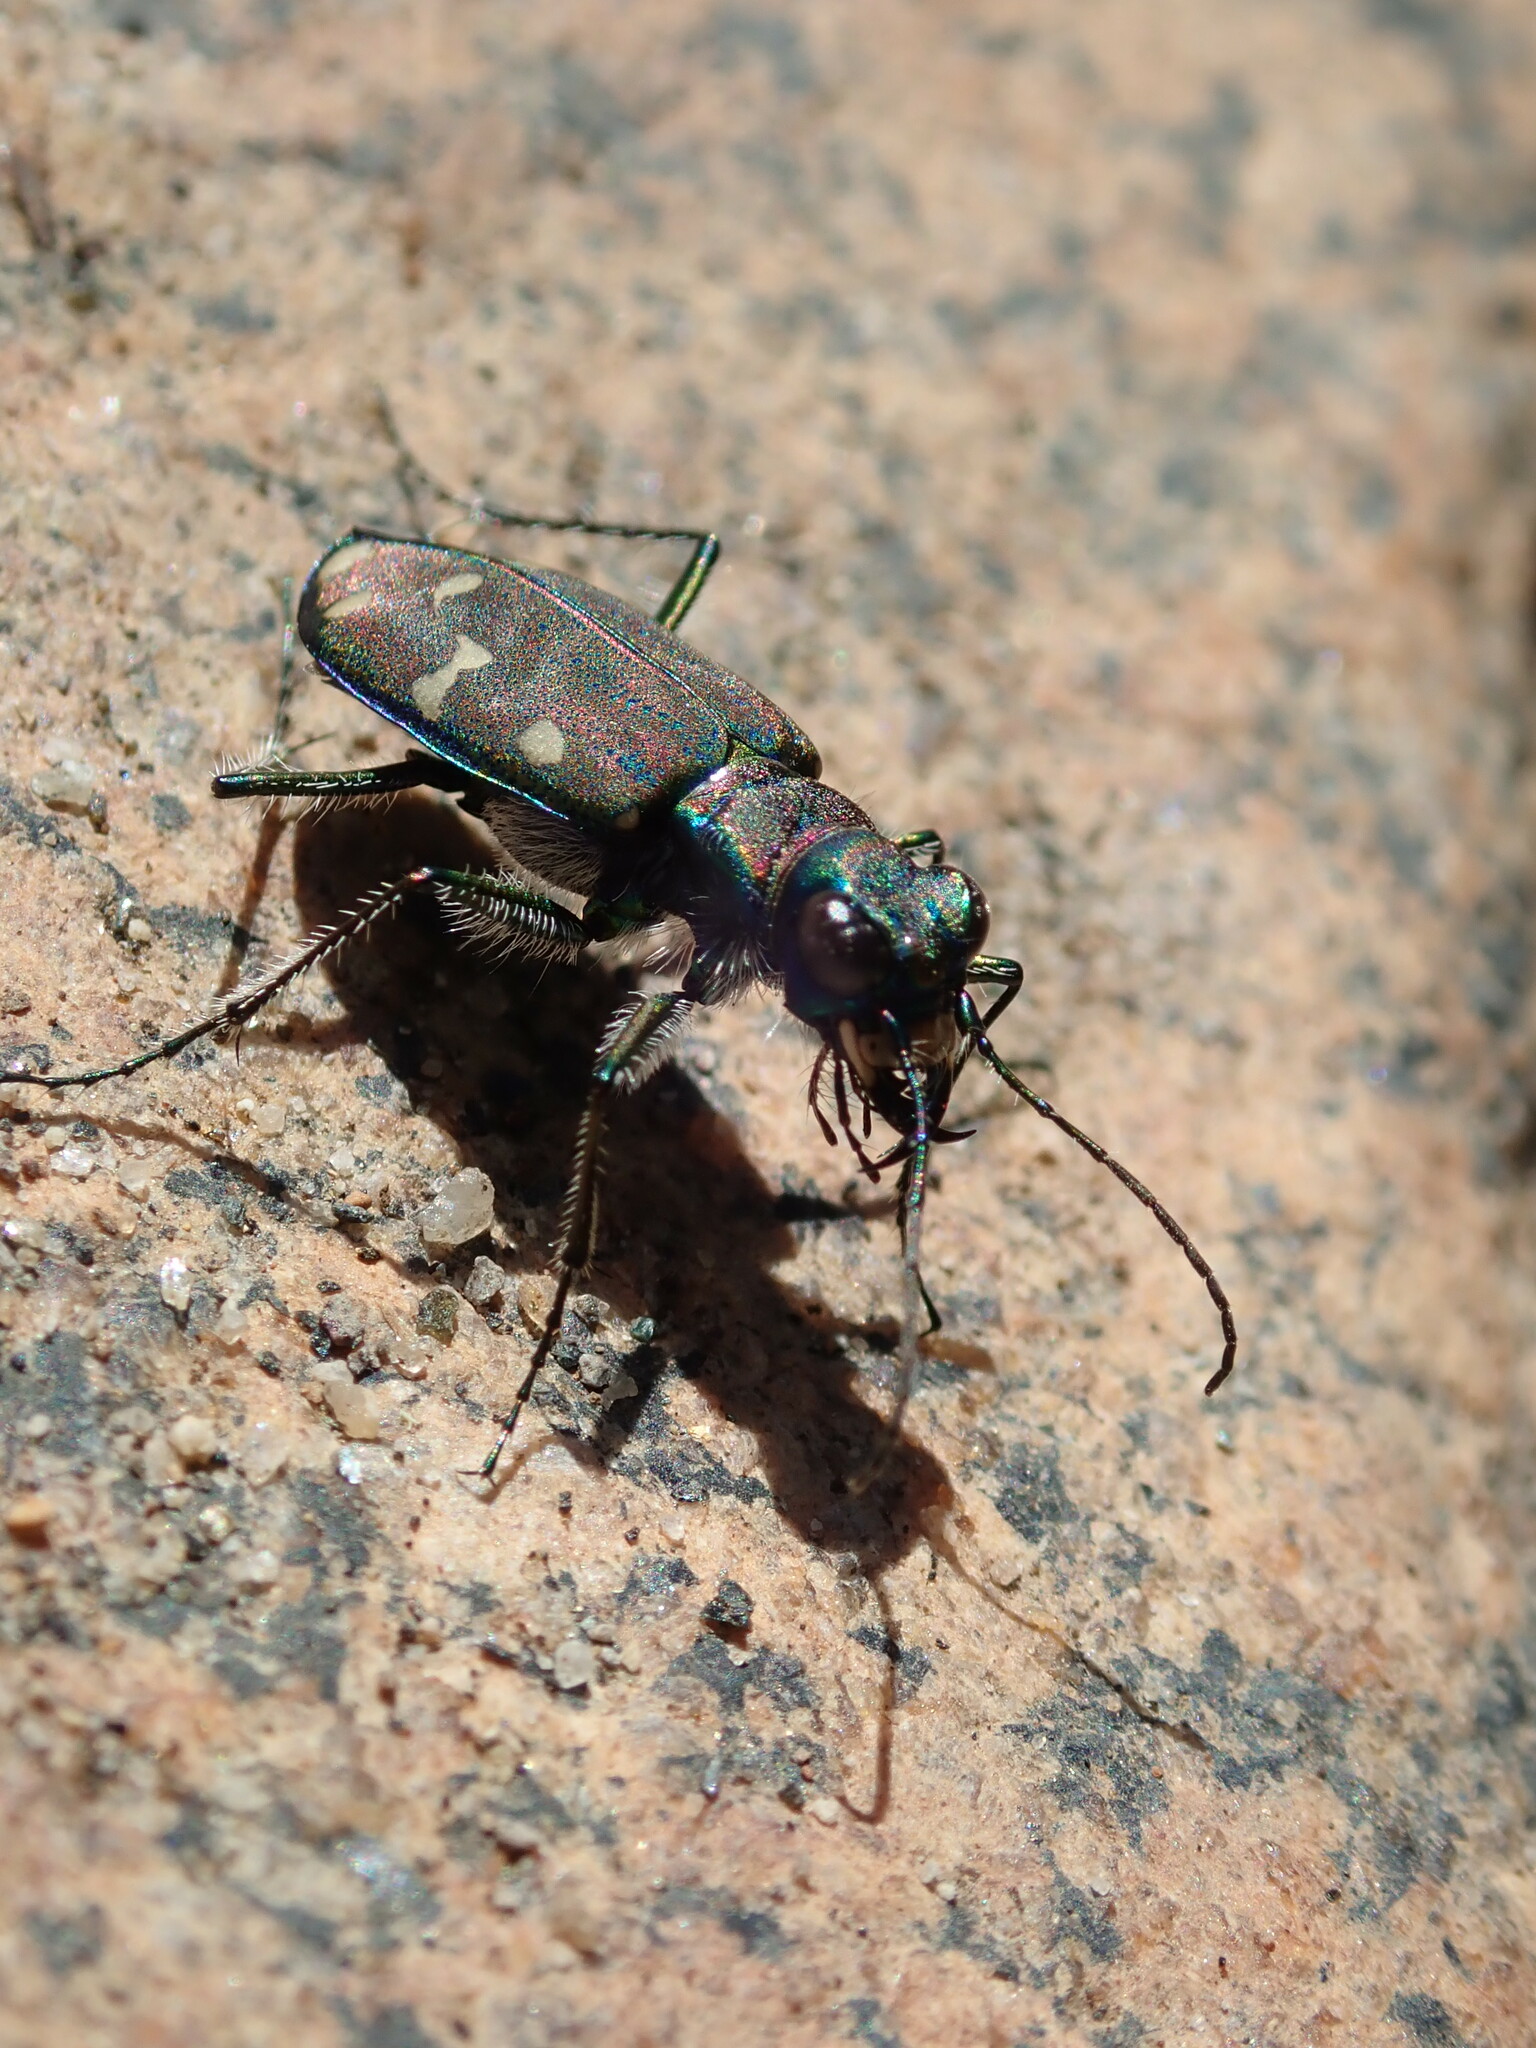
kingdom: Animalia
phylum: Arthropoda
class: Insecta
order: Coleoptera
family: Carabidae
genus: Cicindela
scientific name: Cicindela oregona
